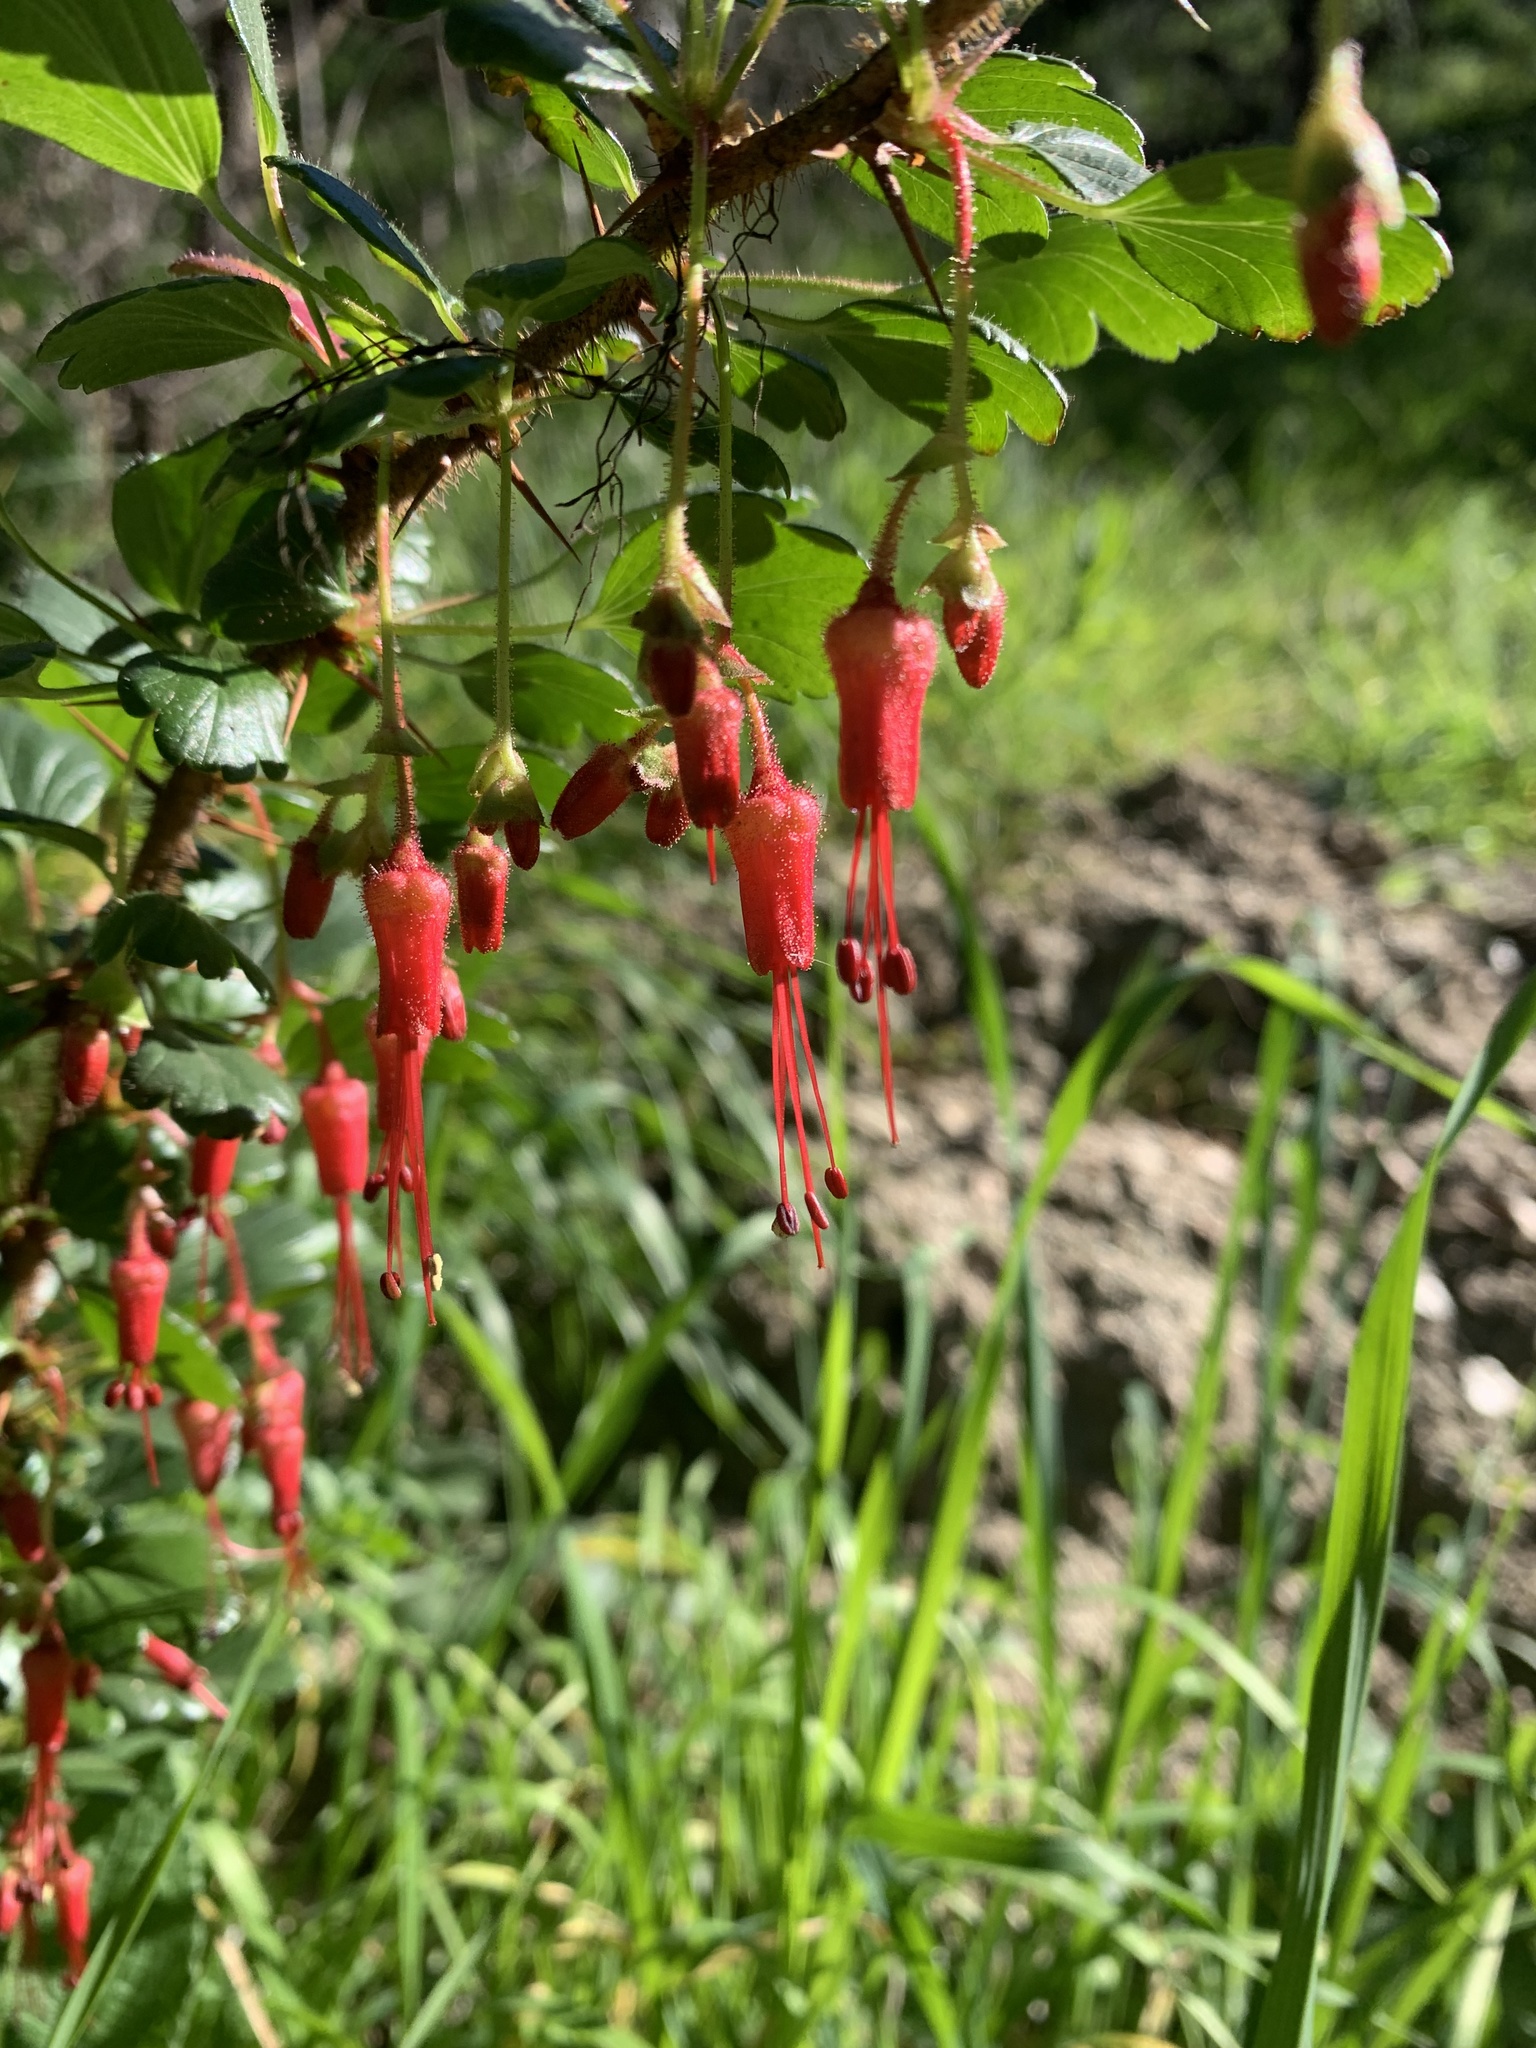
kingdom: Plantae
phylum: Tracheophyta
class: Magnoliopsida
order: Saxifragales
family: Grossulariaceae
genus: Ribes
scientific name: Ribes speciosum
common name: Fuchsia-flower gooseberry
